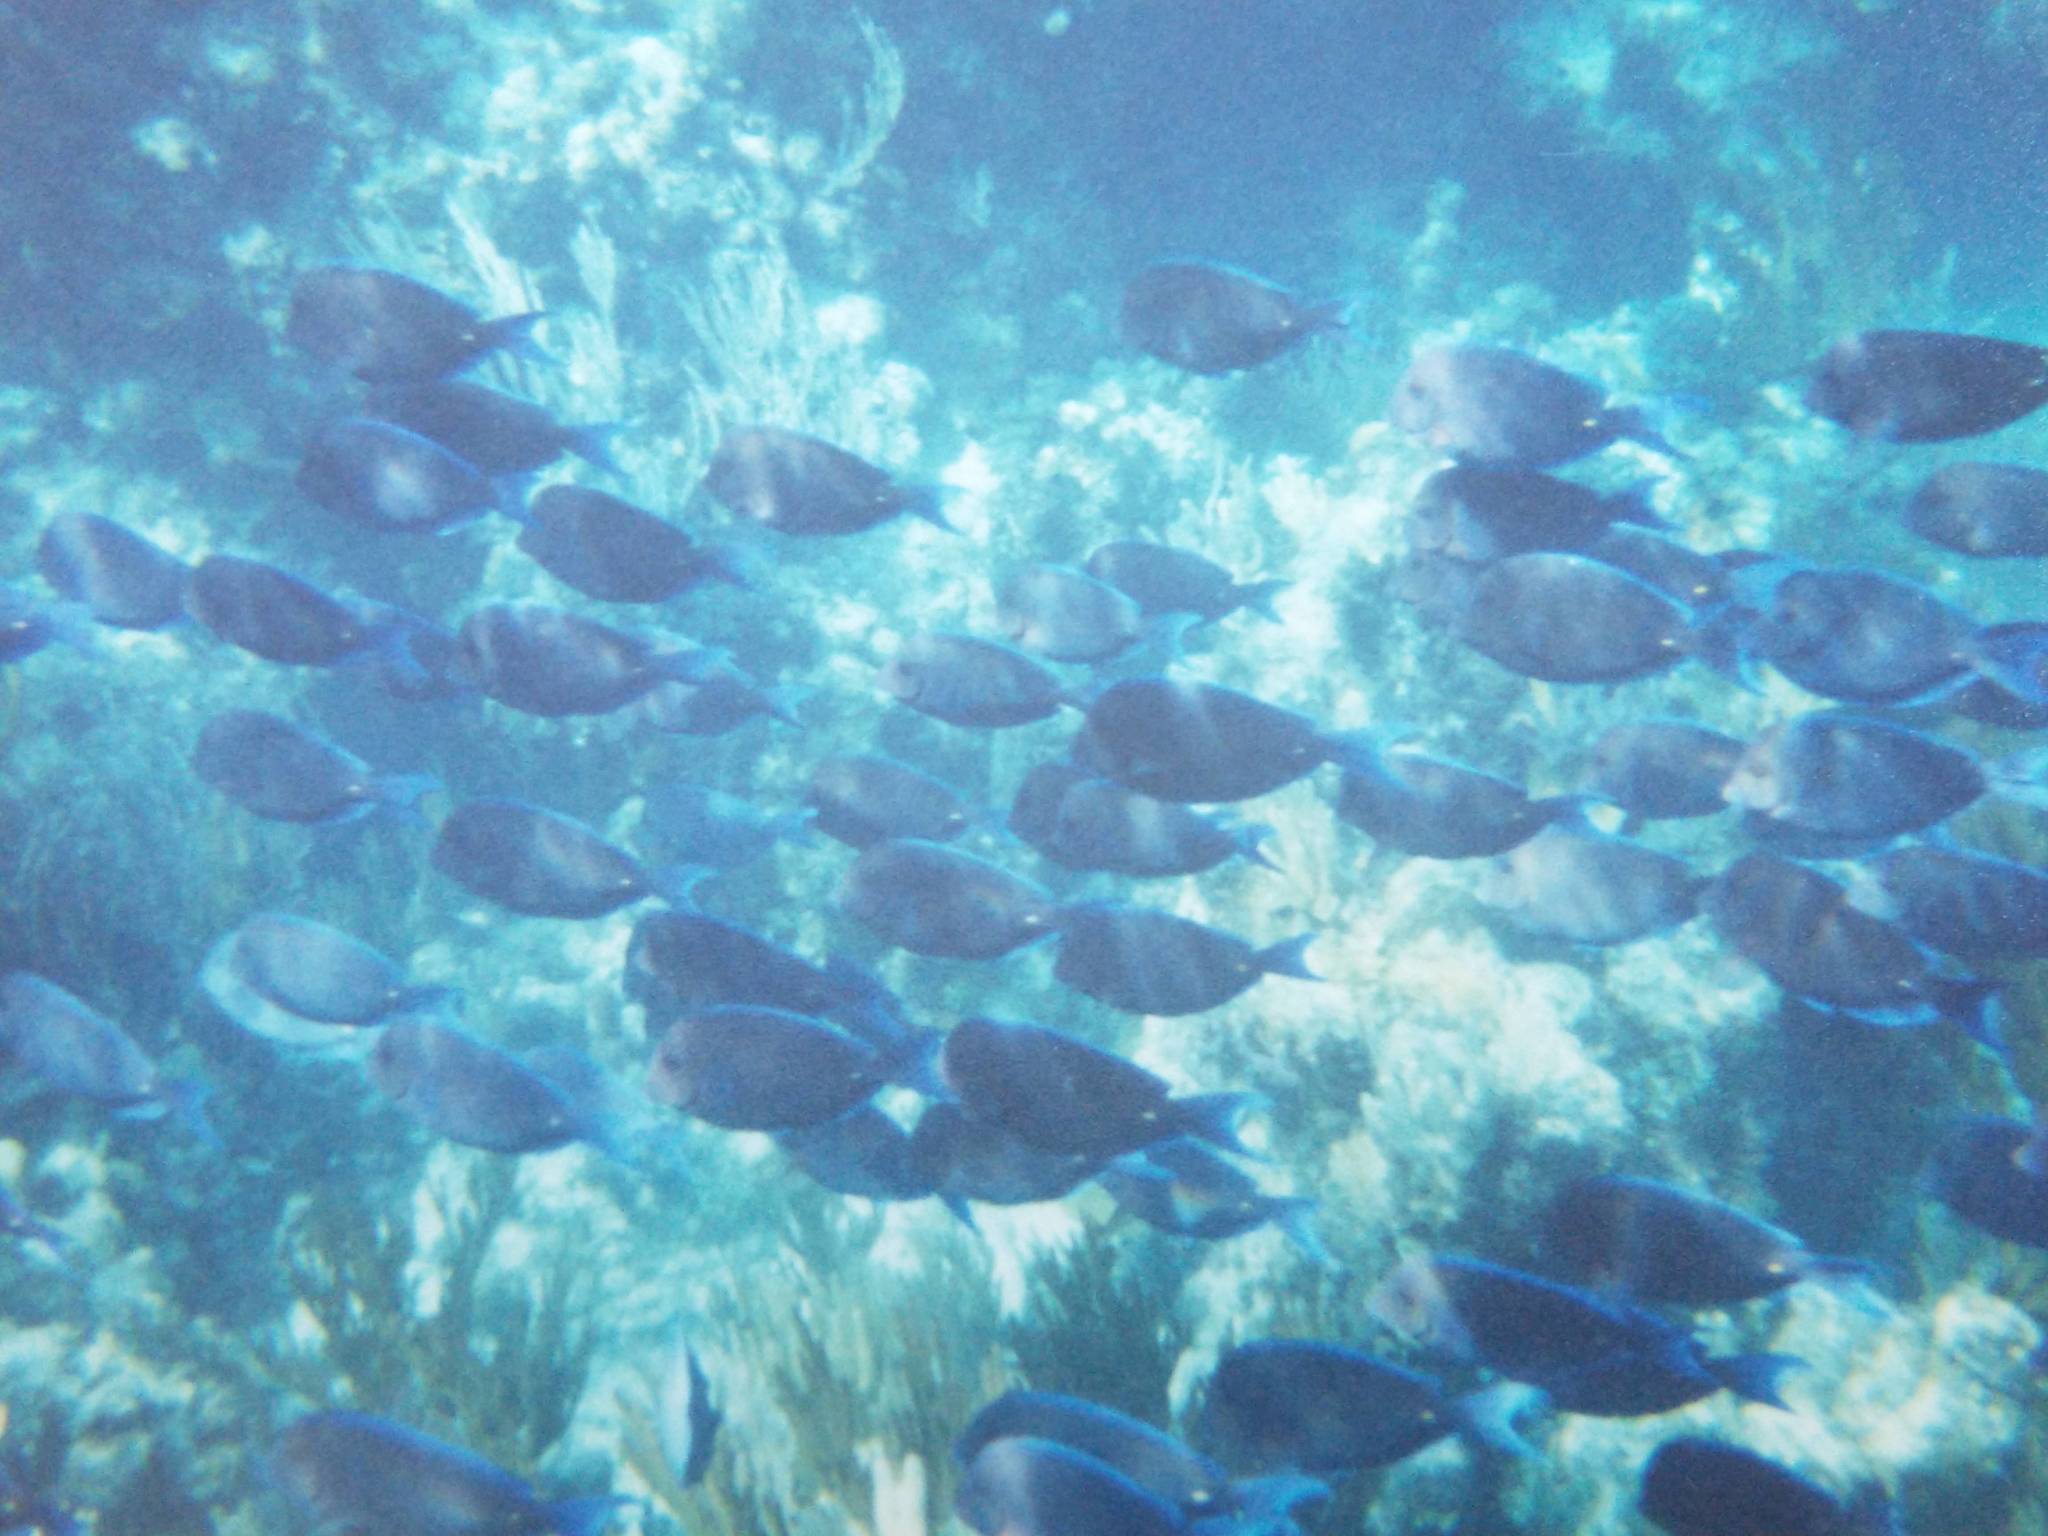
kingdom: Animalia
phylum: Chordata
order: Perciformes
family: Acanthuridae
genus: Acanthurus
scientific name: Acanthurus coeruleus
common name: Blue tang
